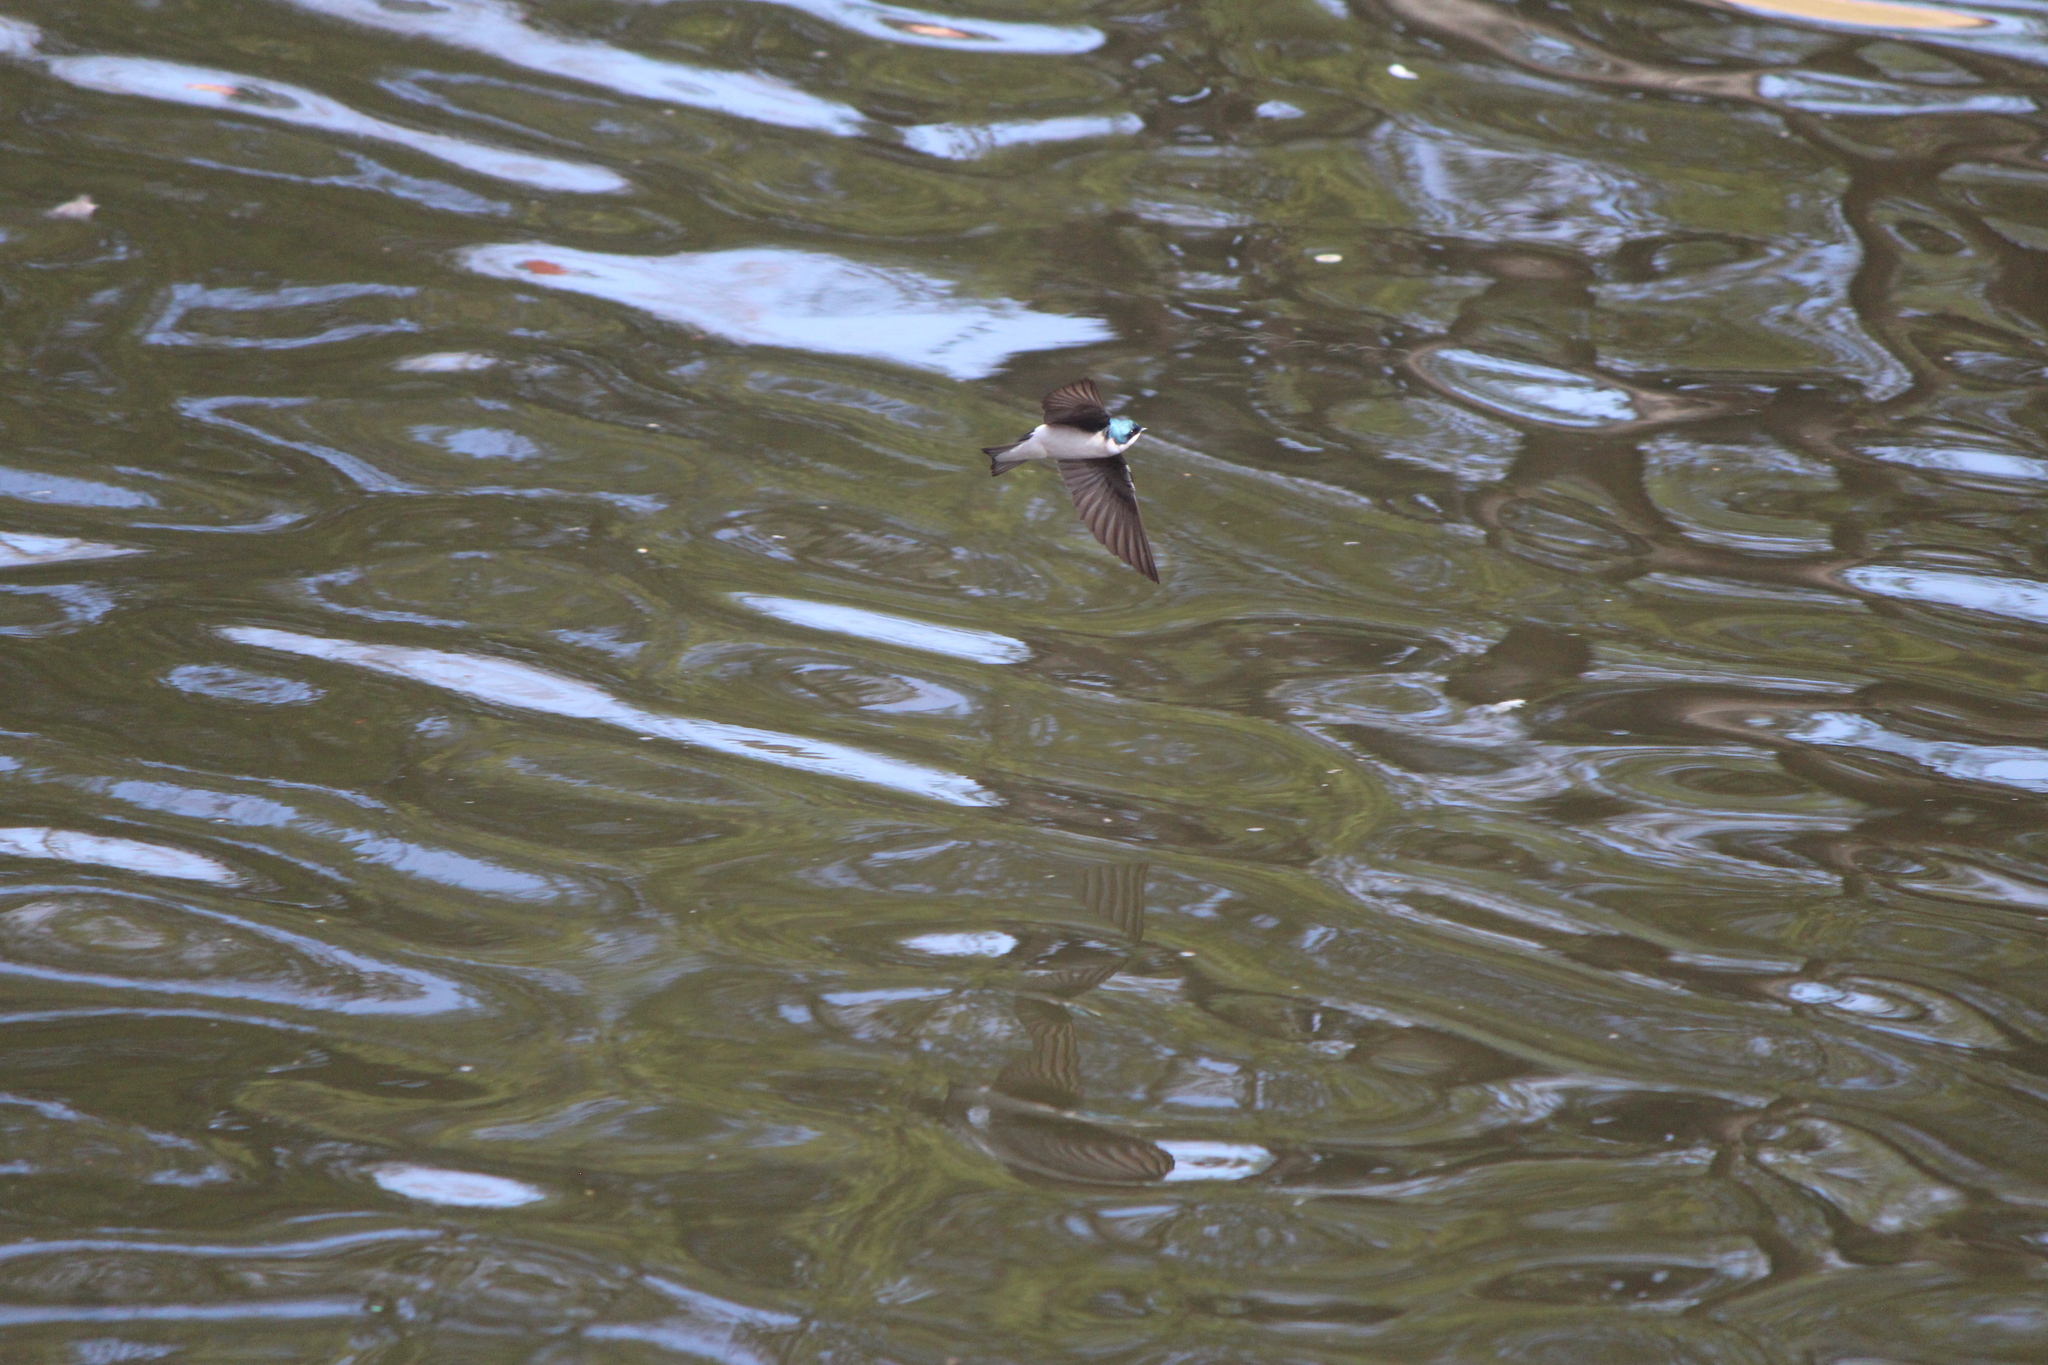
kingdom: Animalia
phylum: Chordata
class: Aves
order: Passeriformes
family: Hirundinidae
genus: Tachycineta
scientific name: Tachycineta bicolor
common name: Tree swallow
